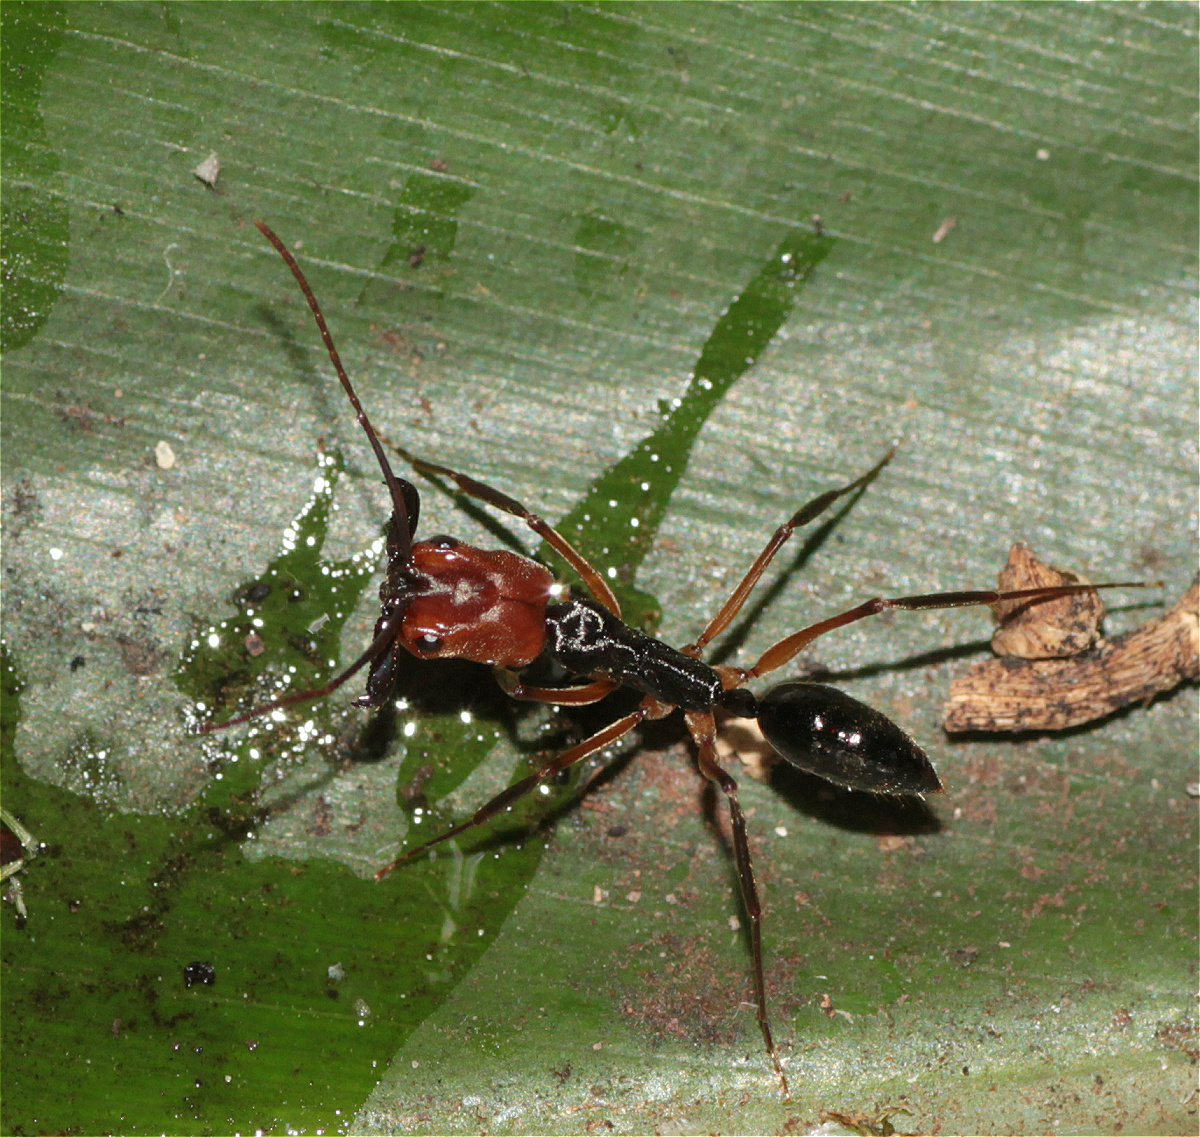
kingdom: Animalia
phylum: Arthropoda
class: Insecta
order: Hymenoptera
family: Formicidae
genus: Odontomachus
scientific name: Odontomachus erythrocephalus
